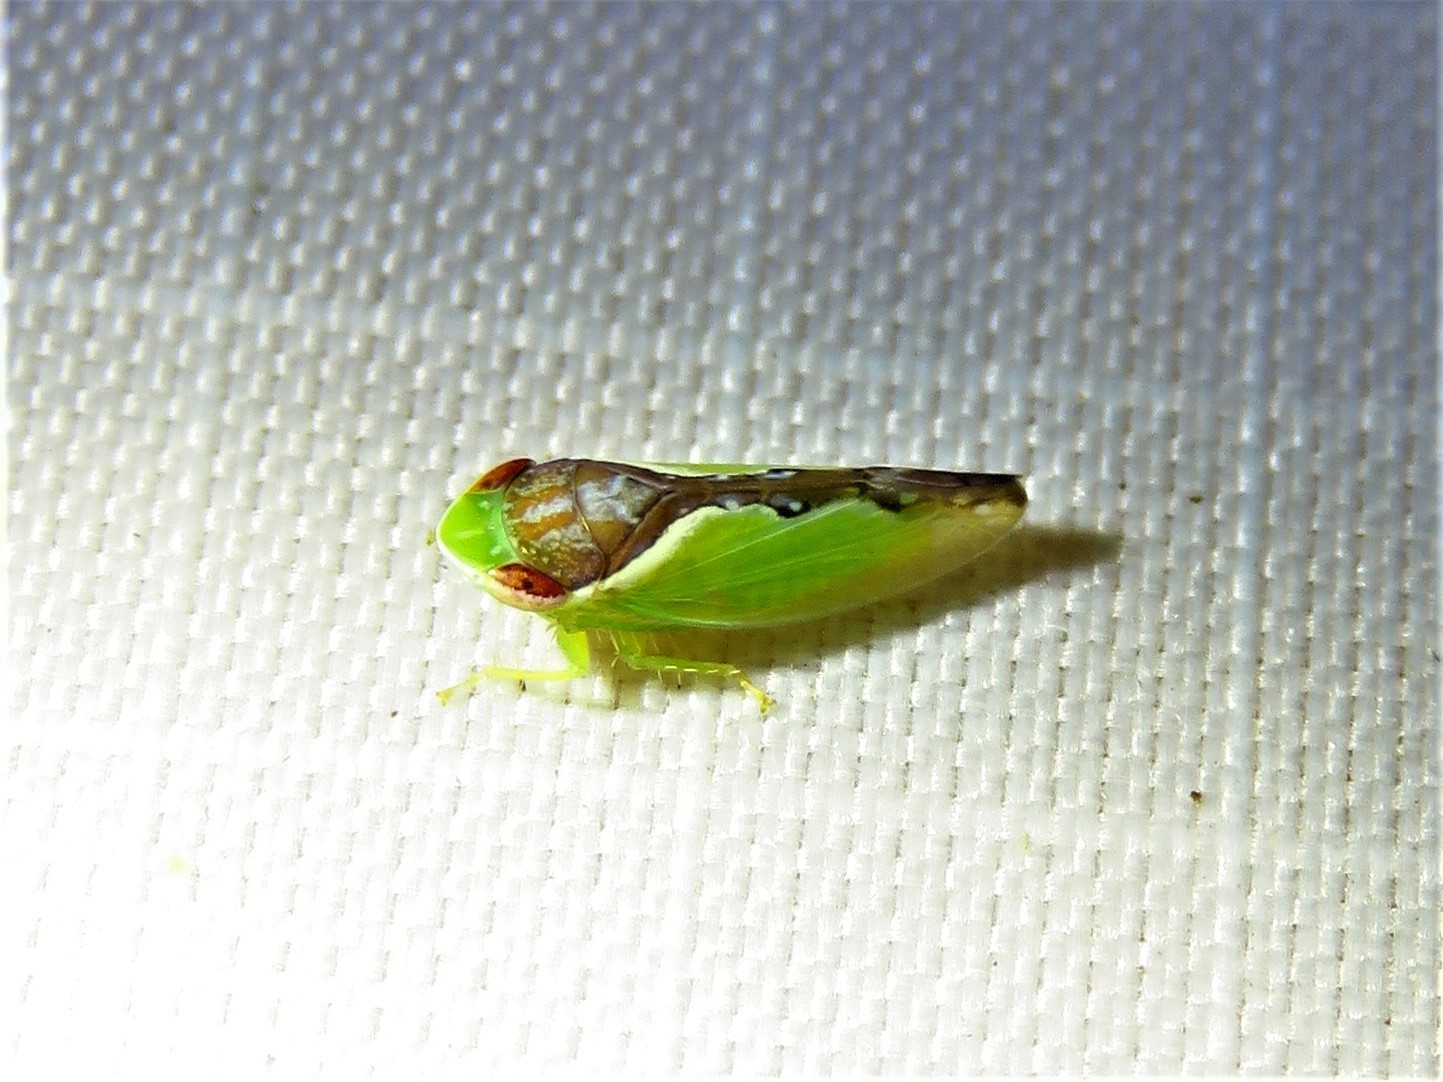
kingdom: Animalia
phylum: Arthropoda
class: Insecta
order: Hemiptera
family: Cicadellidae
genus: Omansobara ing
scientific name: Omansobara ing Omansobara palliolata
